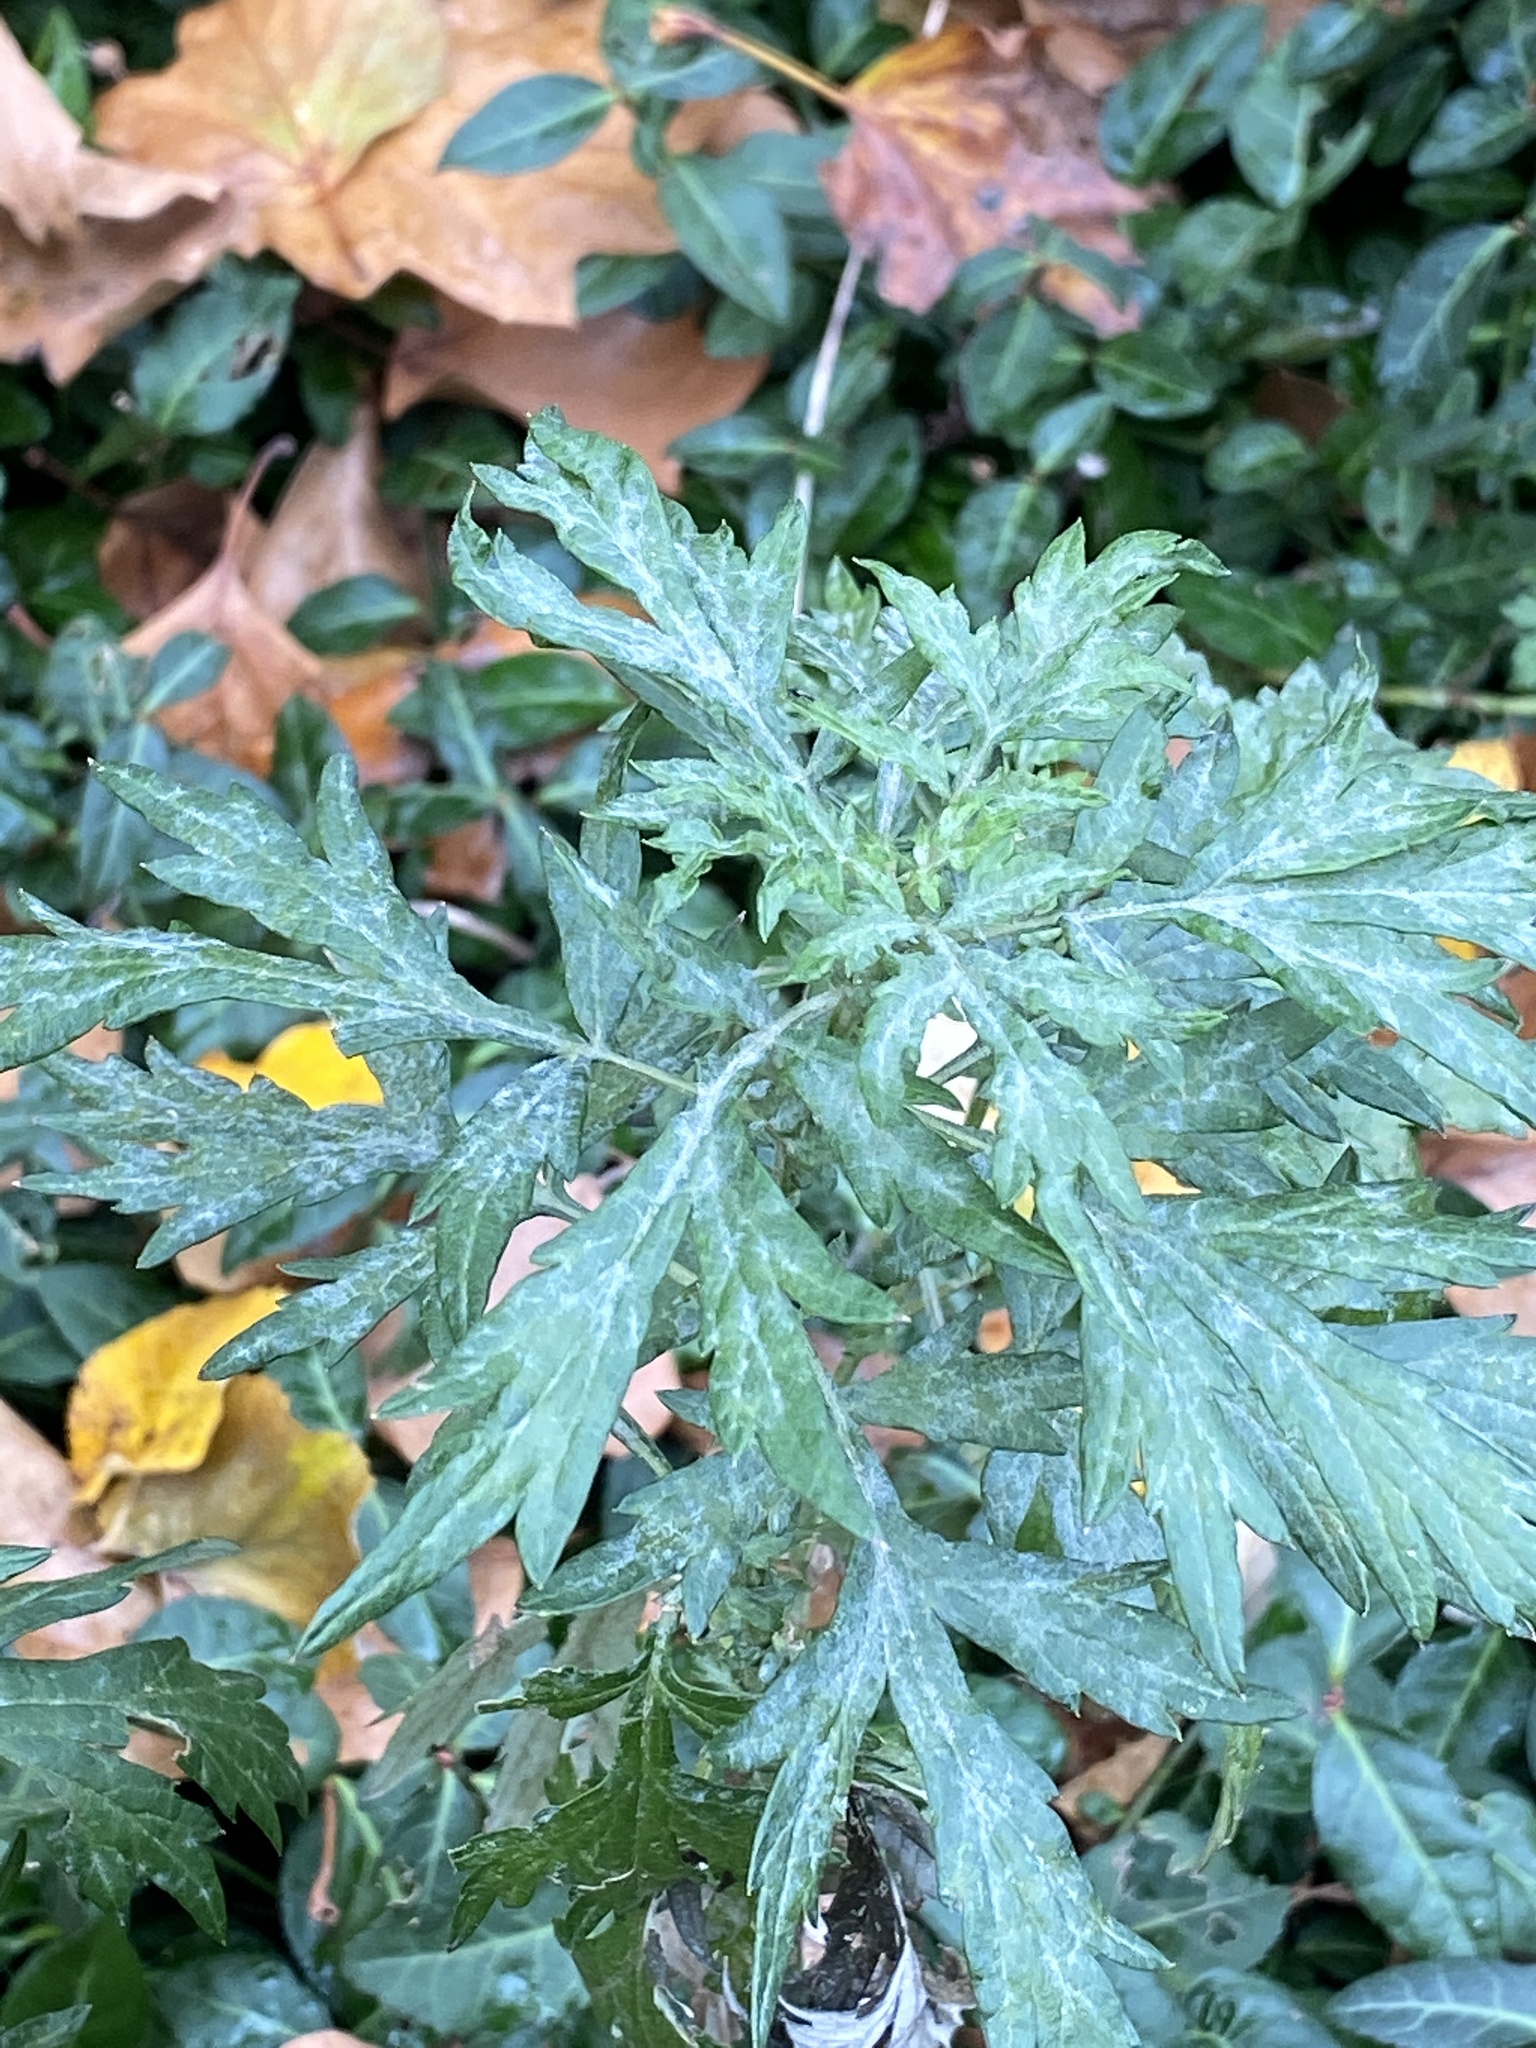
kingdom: Plantae
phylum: Tracheophyta
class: Magnoliopsida
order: Asterales
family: Asteraceae
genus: Artemisia
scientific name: Artemisia vulgaris
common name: Mugwort
